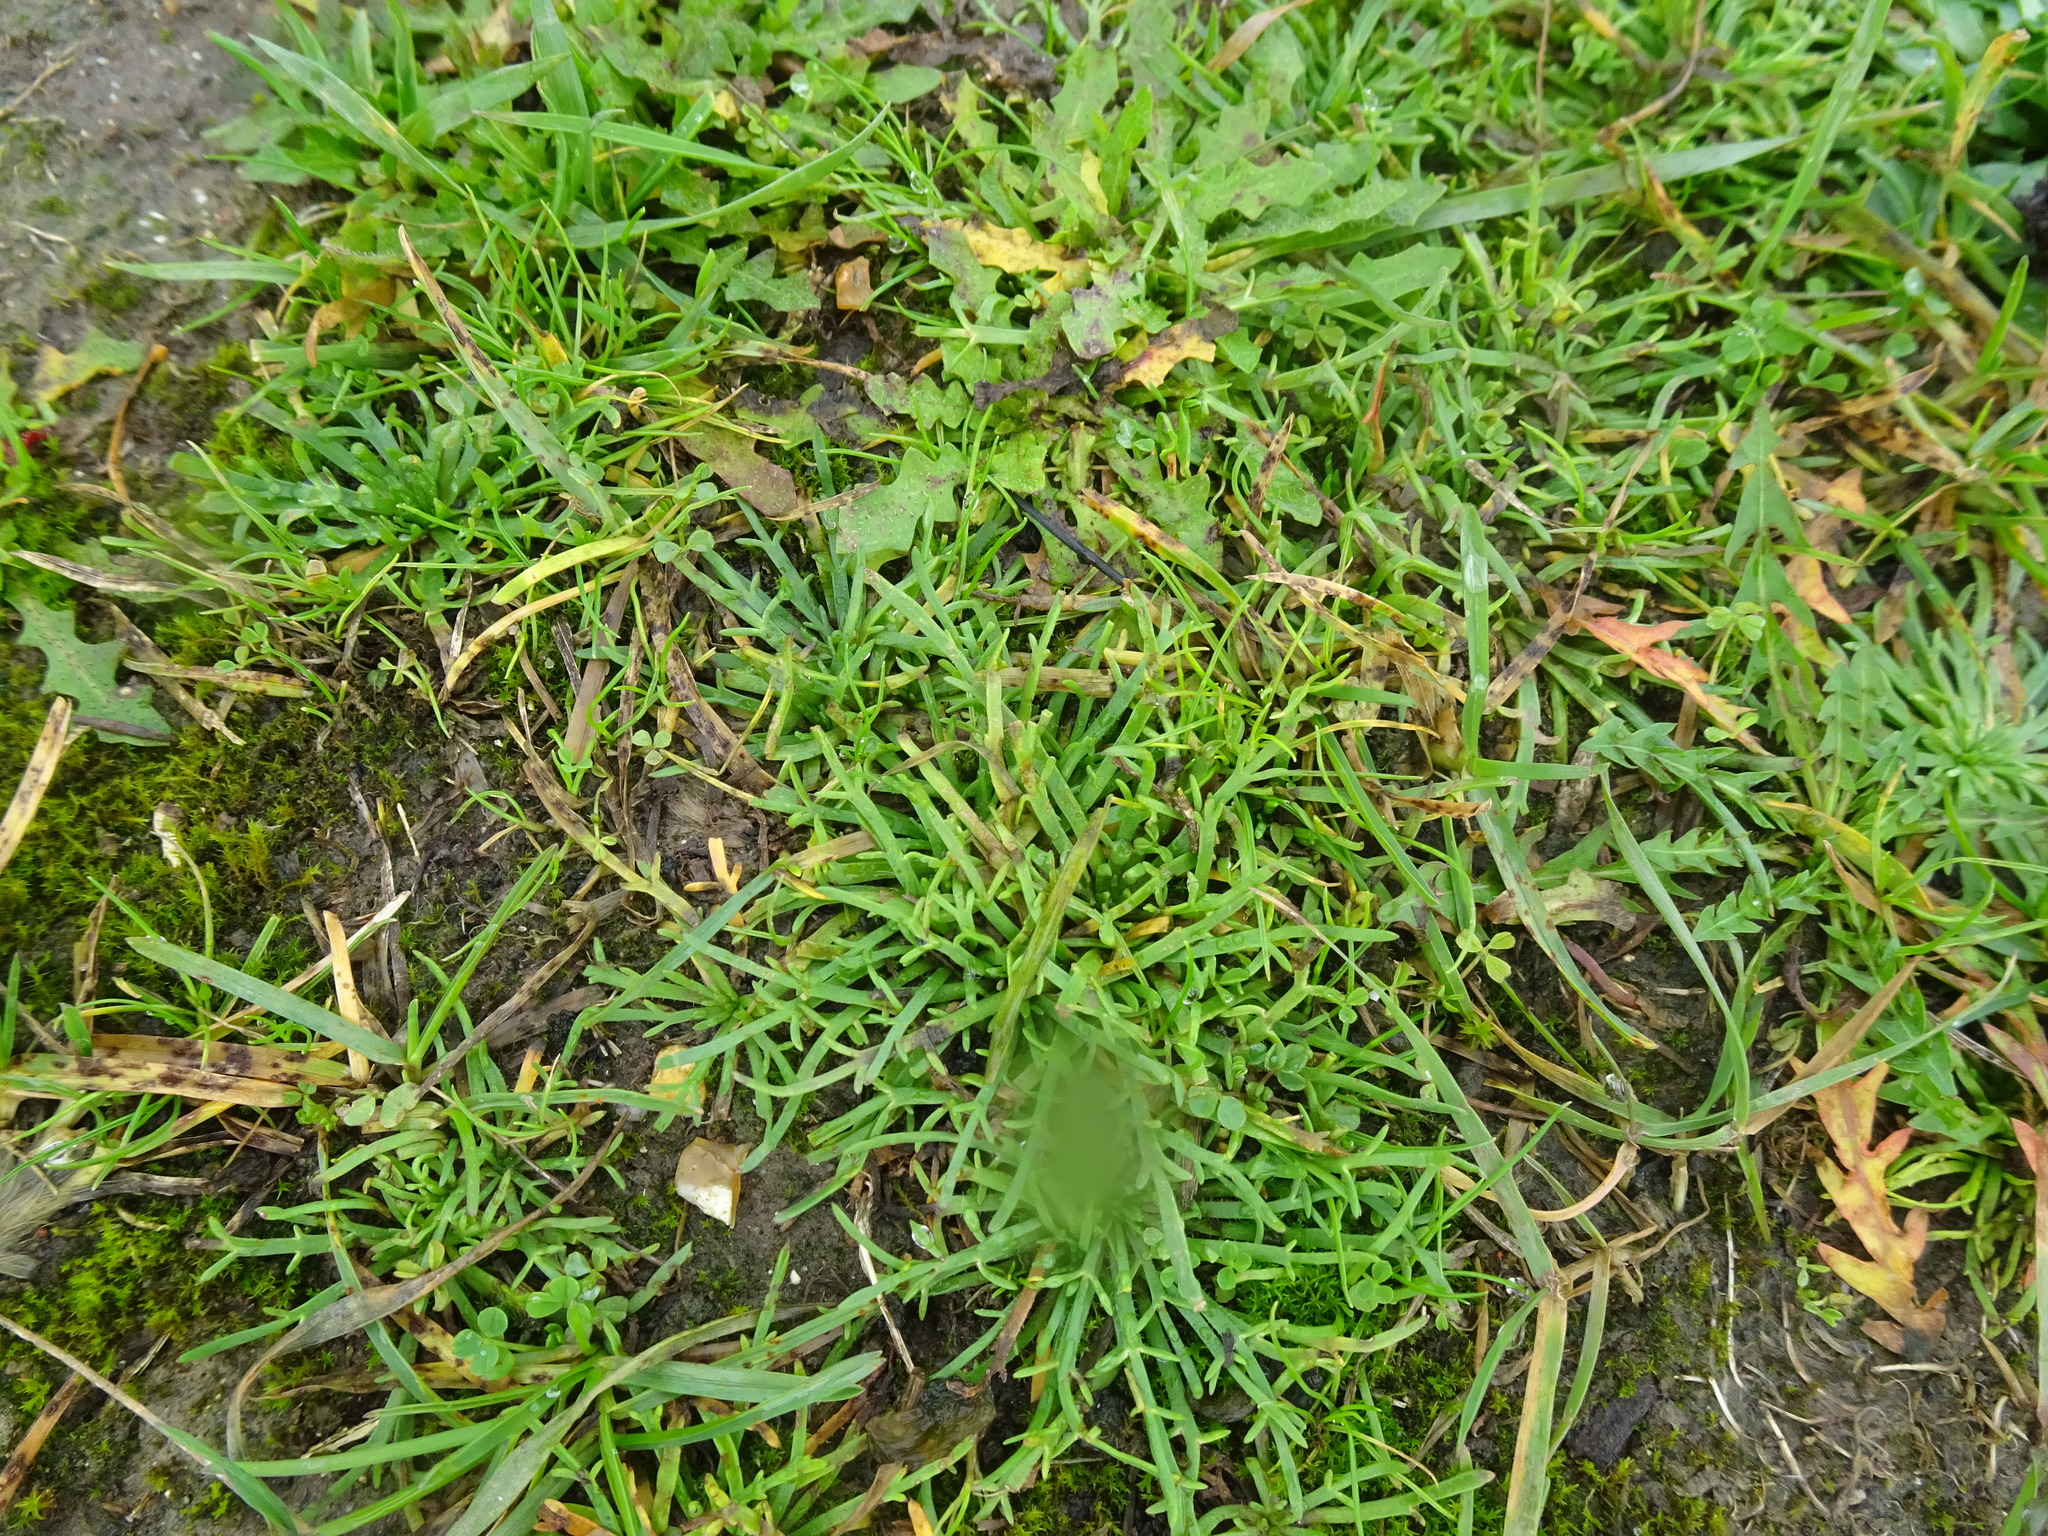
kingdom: Plantae
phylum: Tracheophyta
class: Magnoliopsida
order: Lamiales
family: Plantaginaceae
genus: Plantago
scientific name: Plantago coronopus
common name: Buck's-horn plantain
